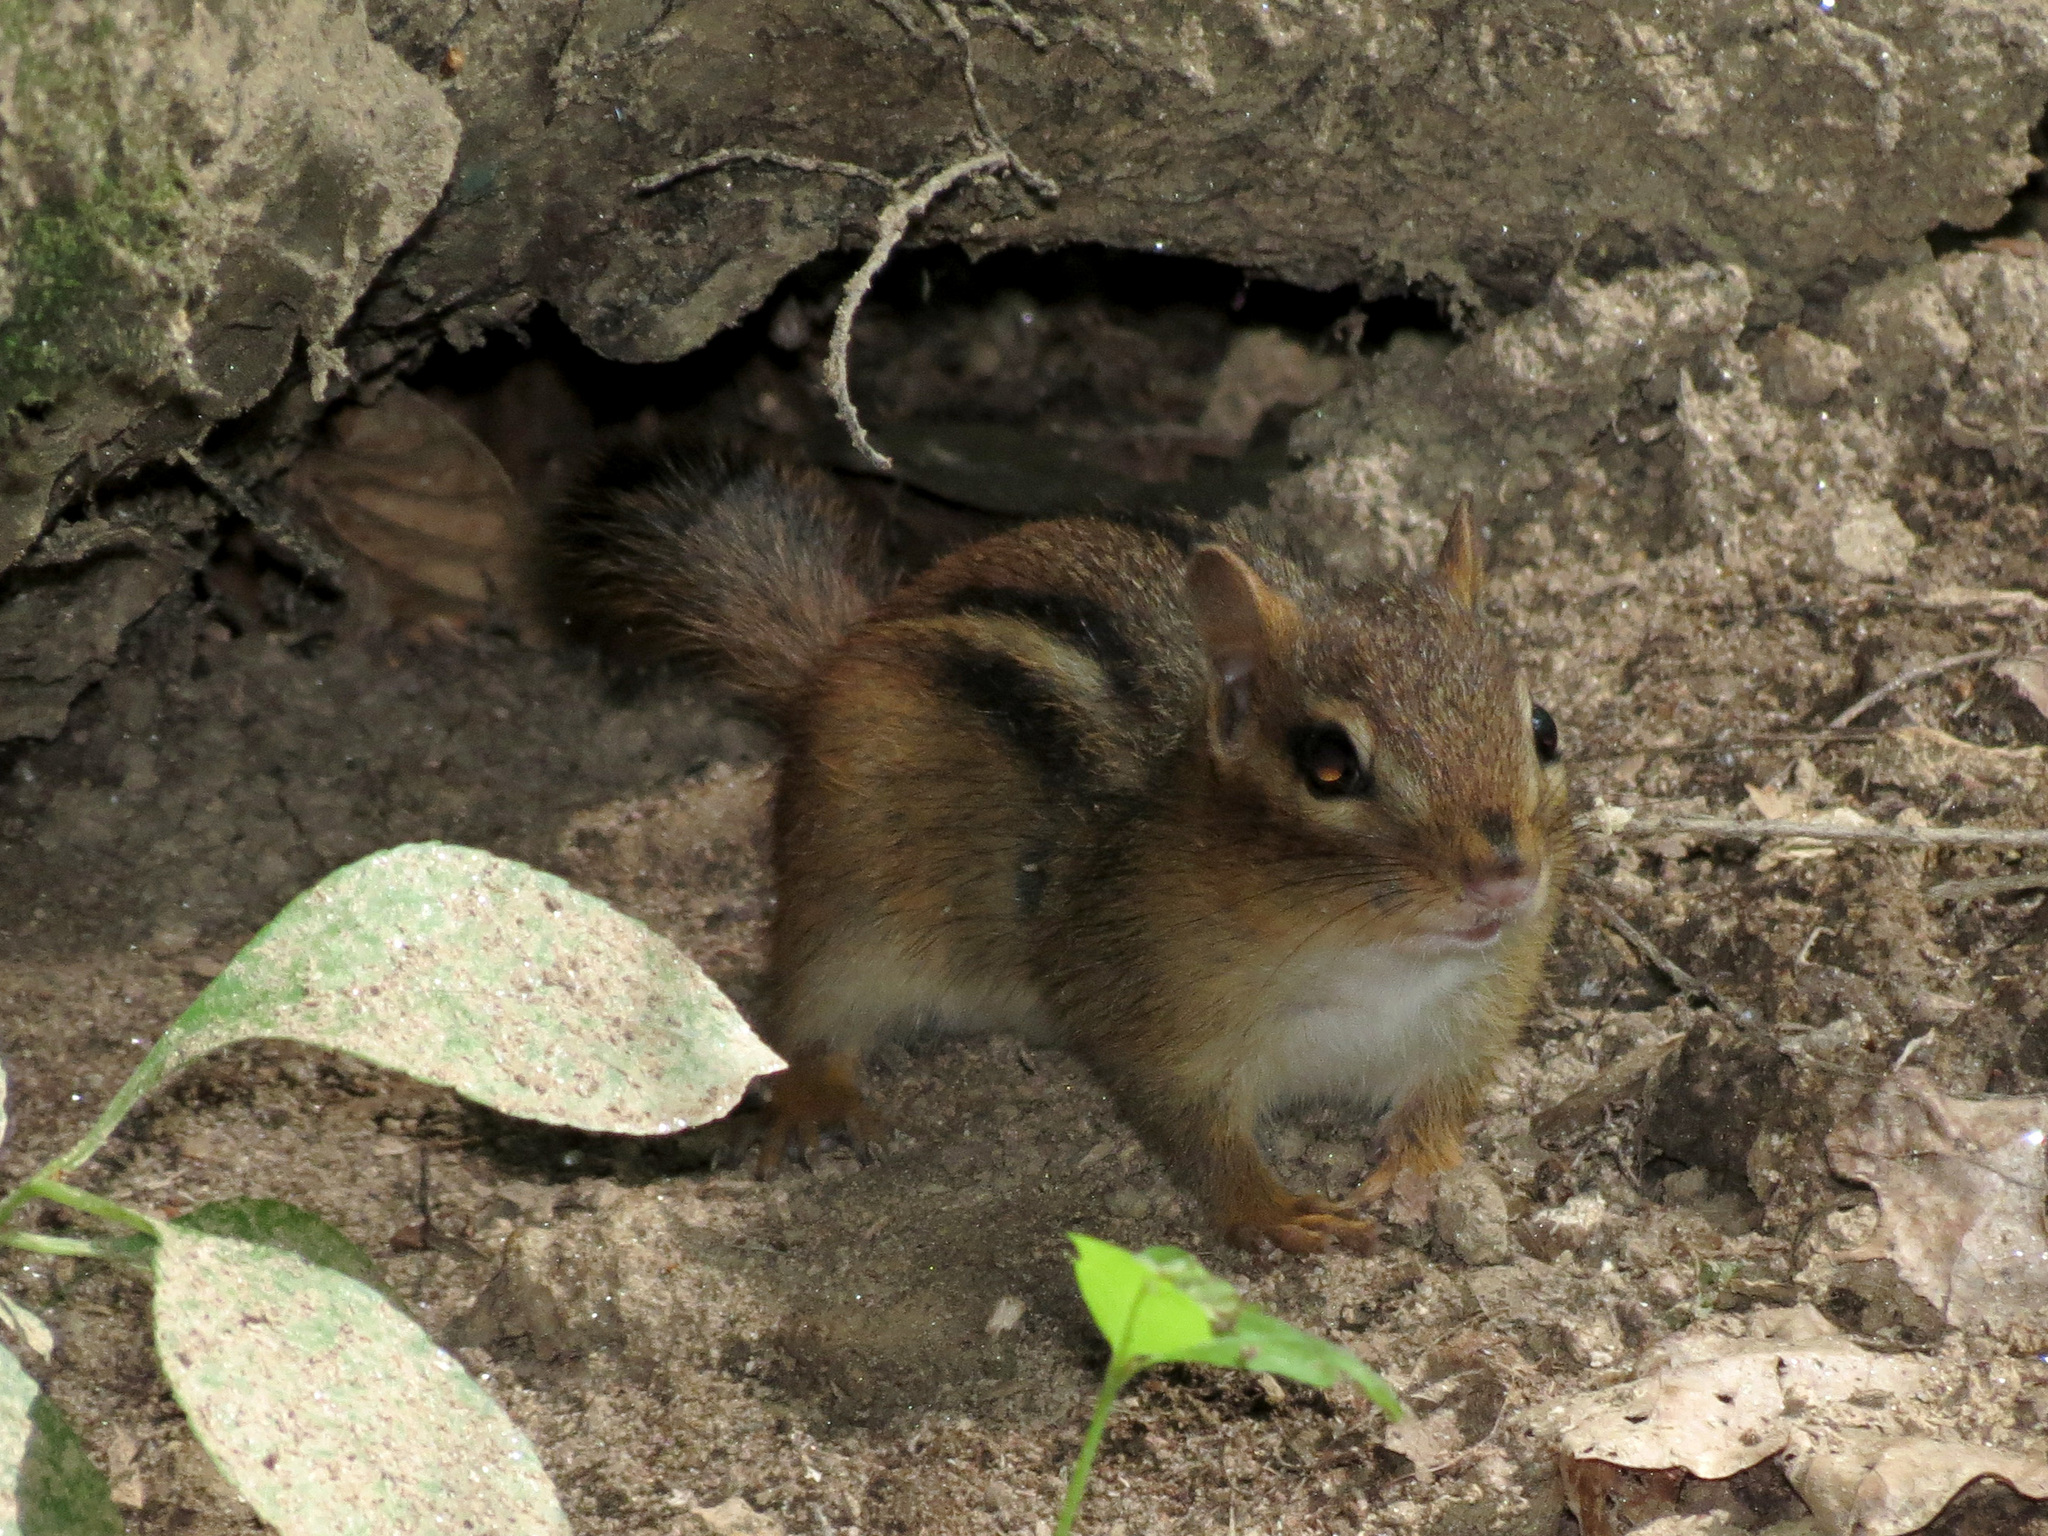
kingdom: Animalia
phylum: Chordata
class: Mammalia
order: Rodentia
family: Sciuridae
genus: Tamias
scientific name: Tamias striatus
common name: Eastern chipmunk
